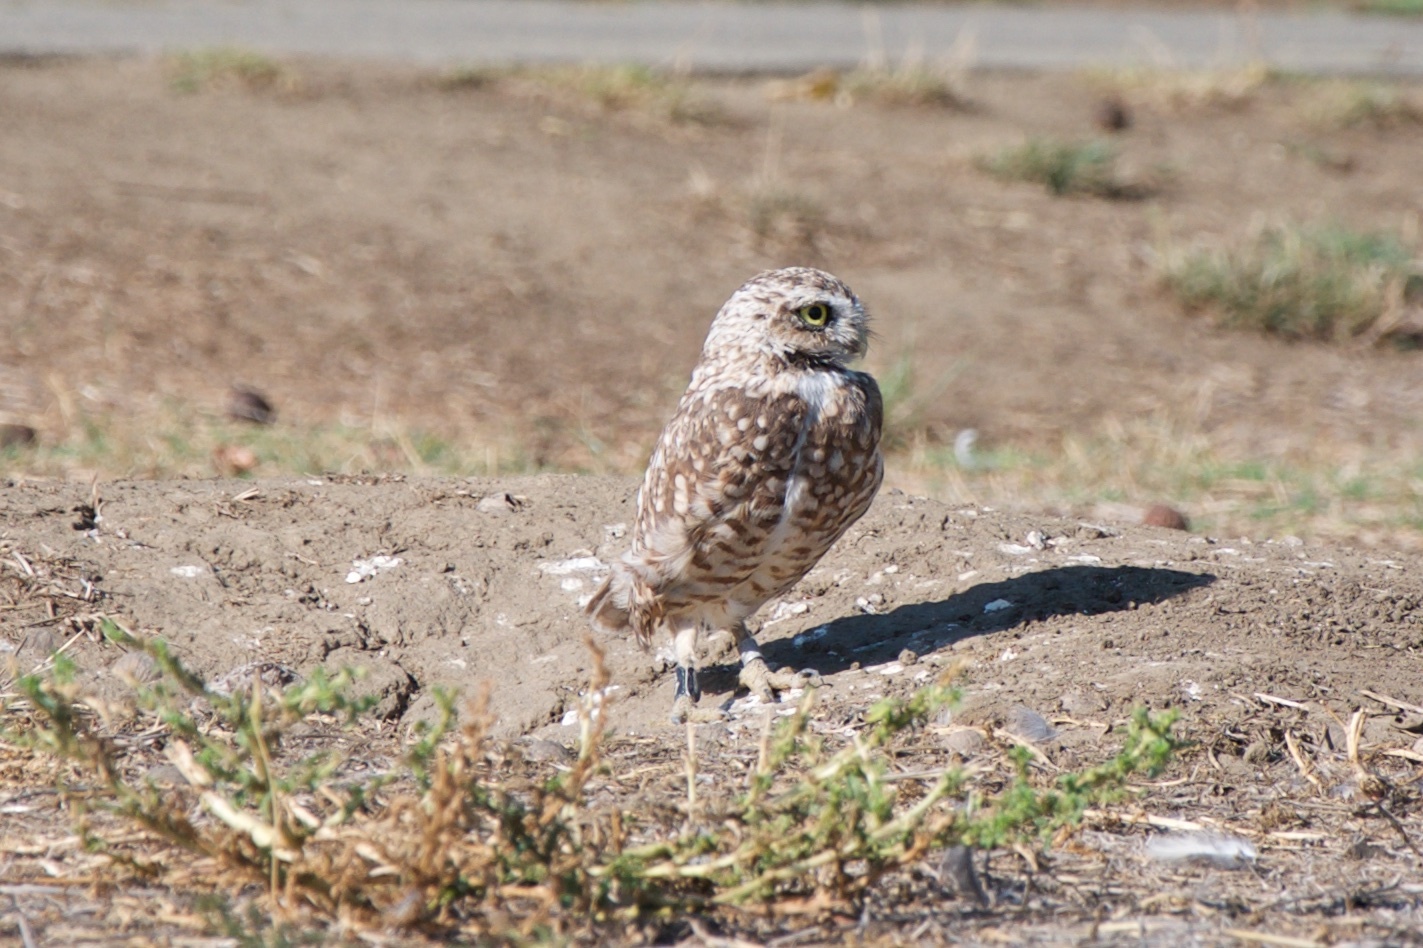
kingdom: Animalia
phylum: Chordata
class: Aves
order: Strigiformes
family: Strigidae
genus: Athene
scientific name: Athene cunicularia
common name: Burrowing owl
